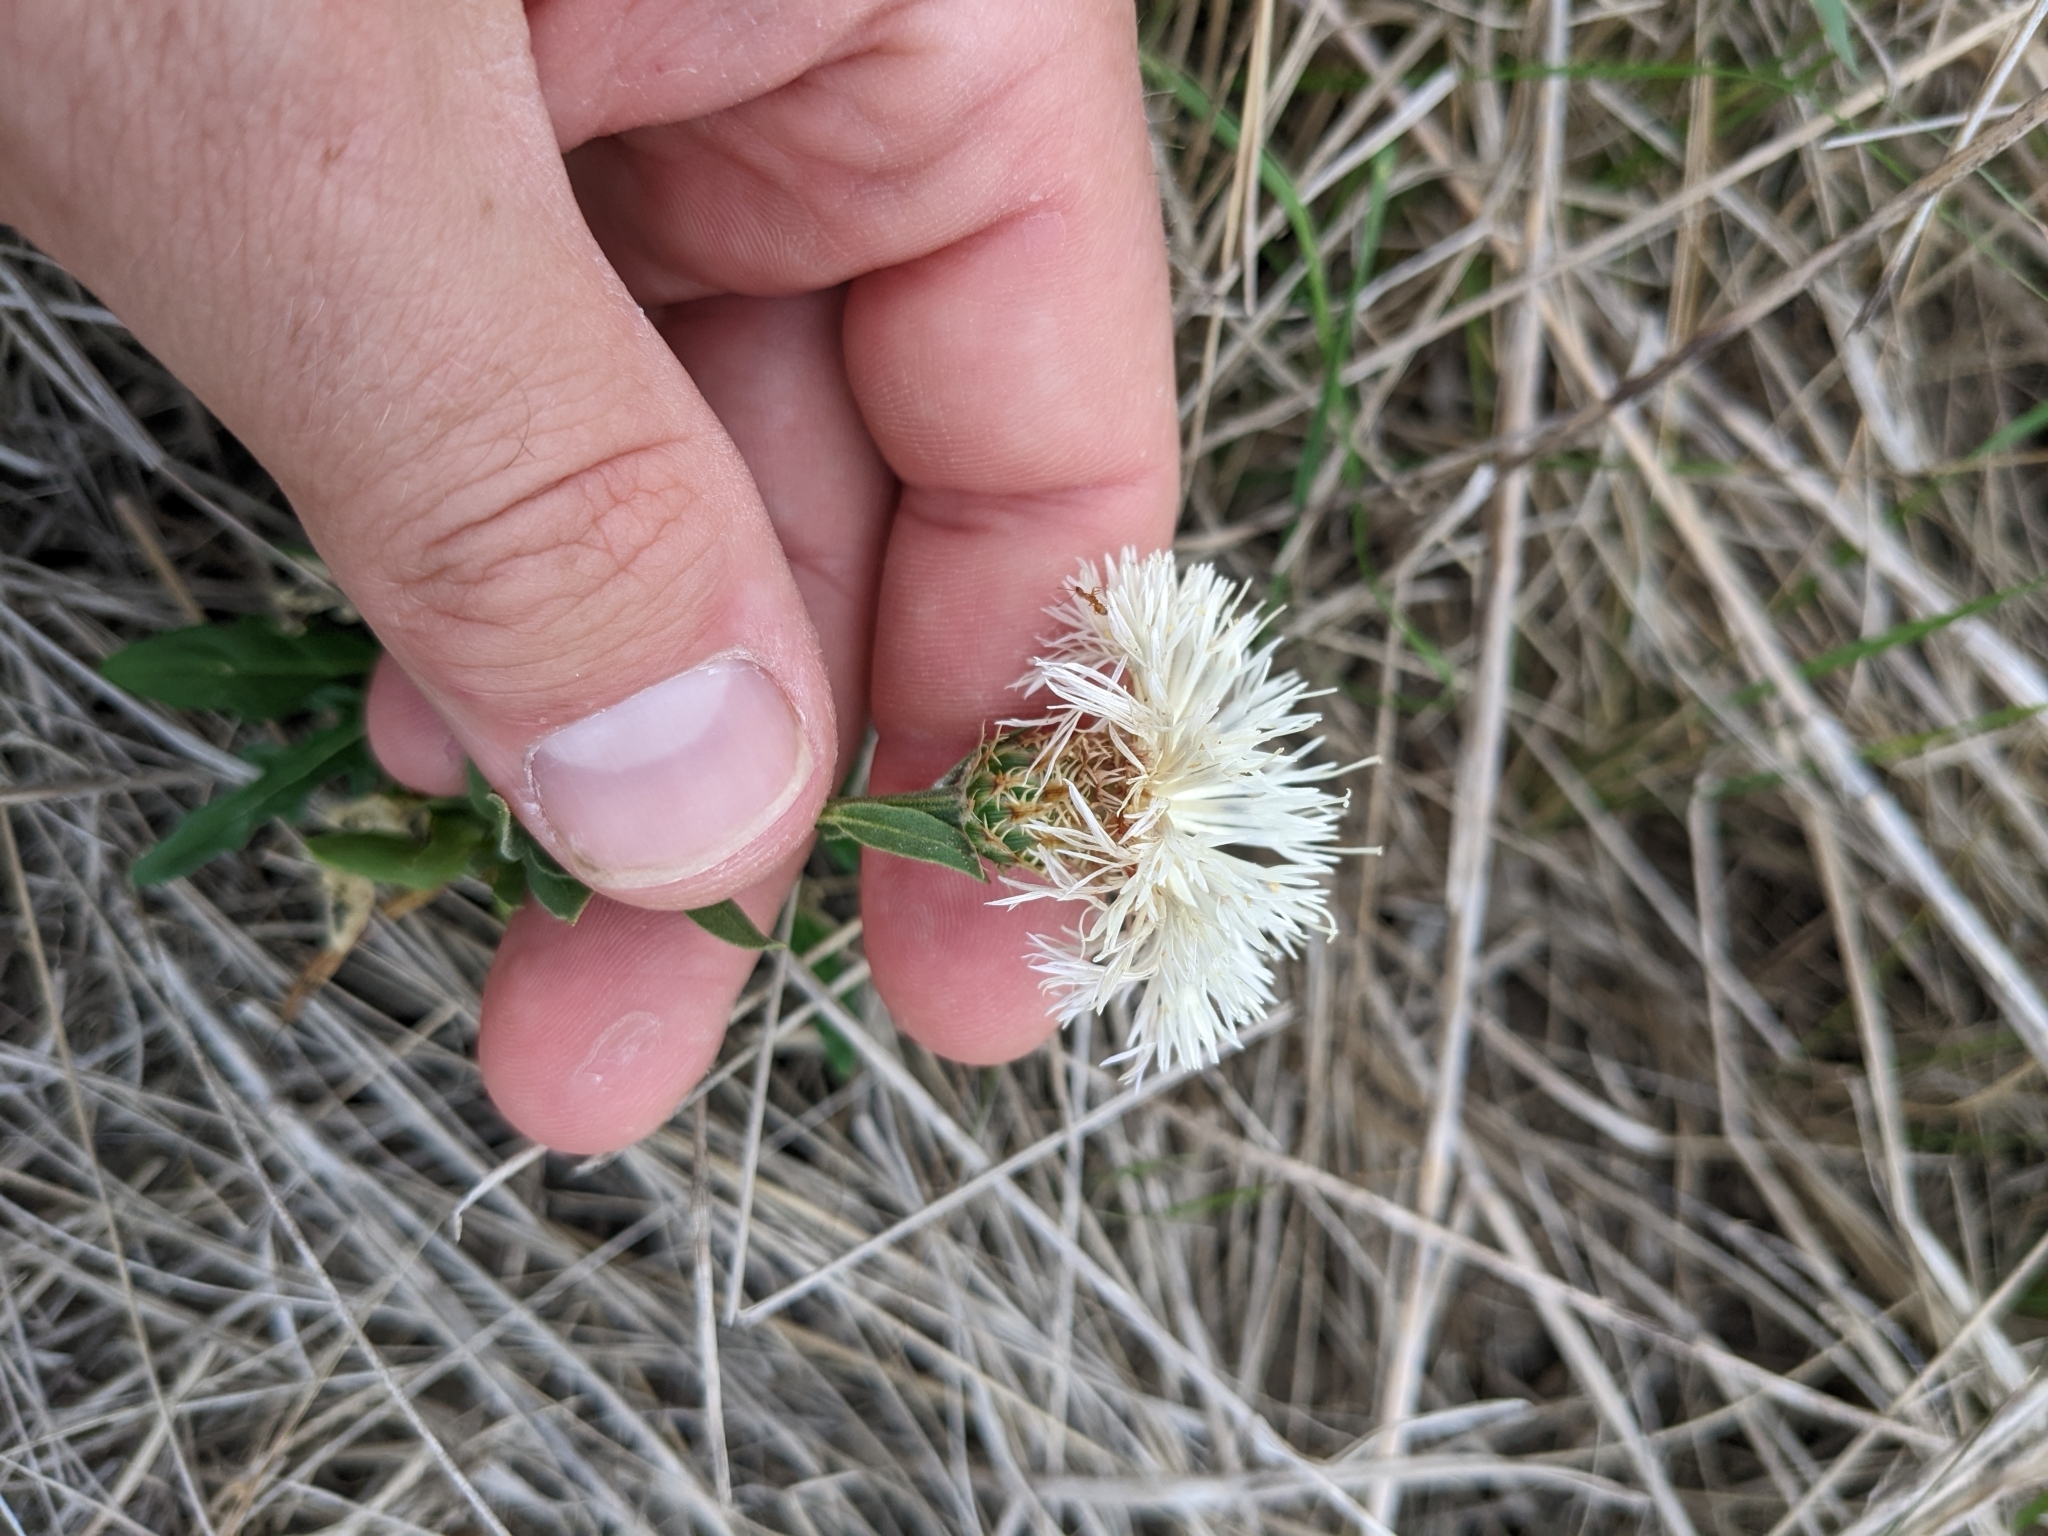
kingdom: Plantae
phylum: Tracheophyta
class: Magnoliopsida
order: Asterales
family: Asteraceae
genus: Plectocephalus
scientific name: Plectocephalus americanus
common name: American basket-flower
